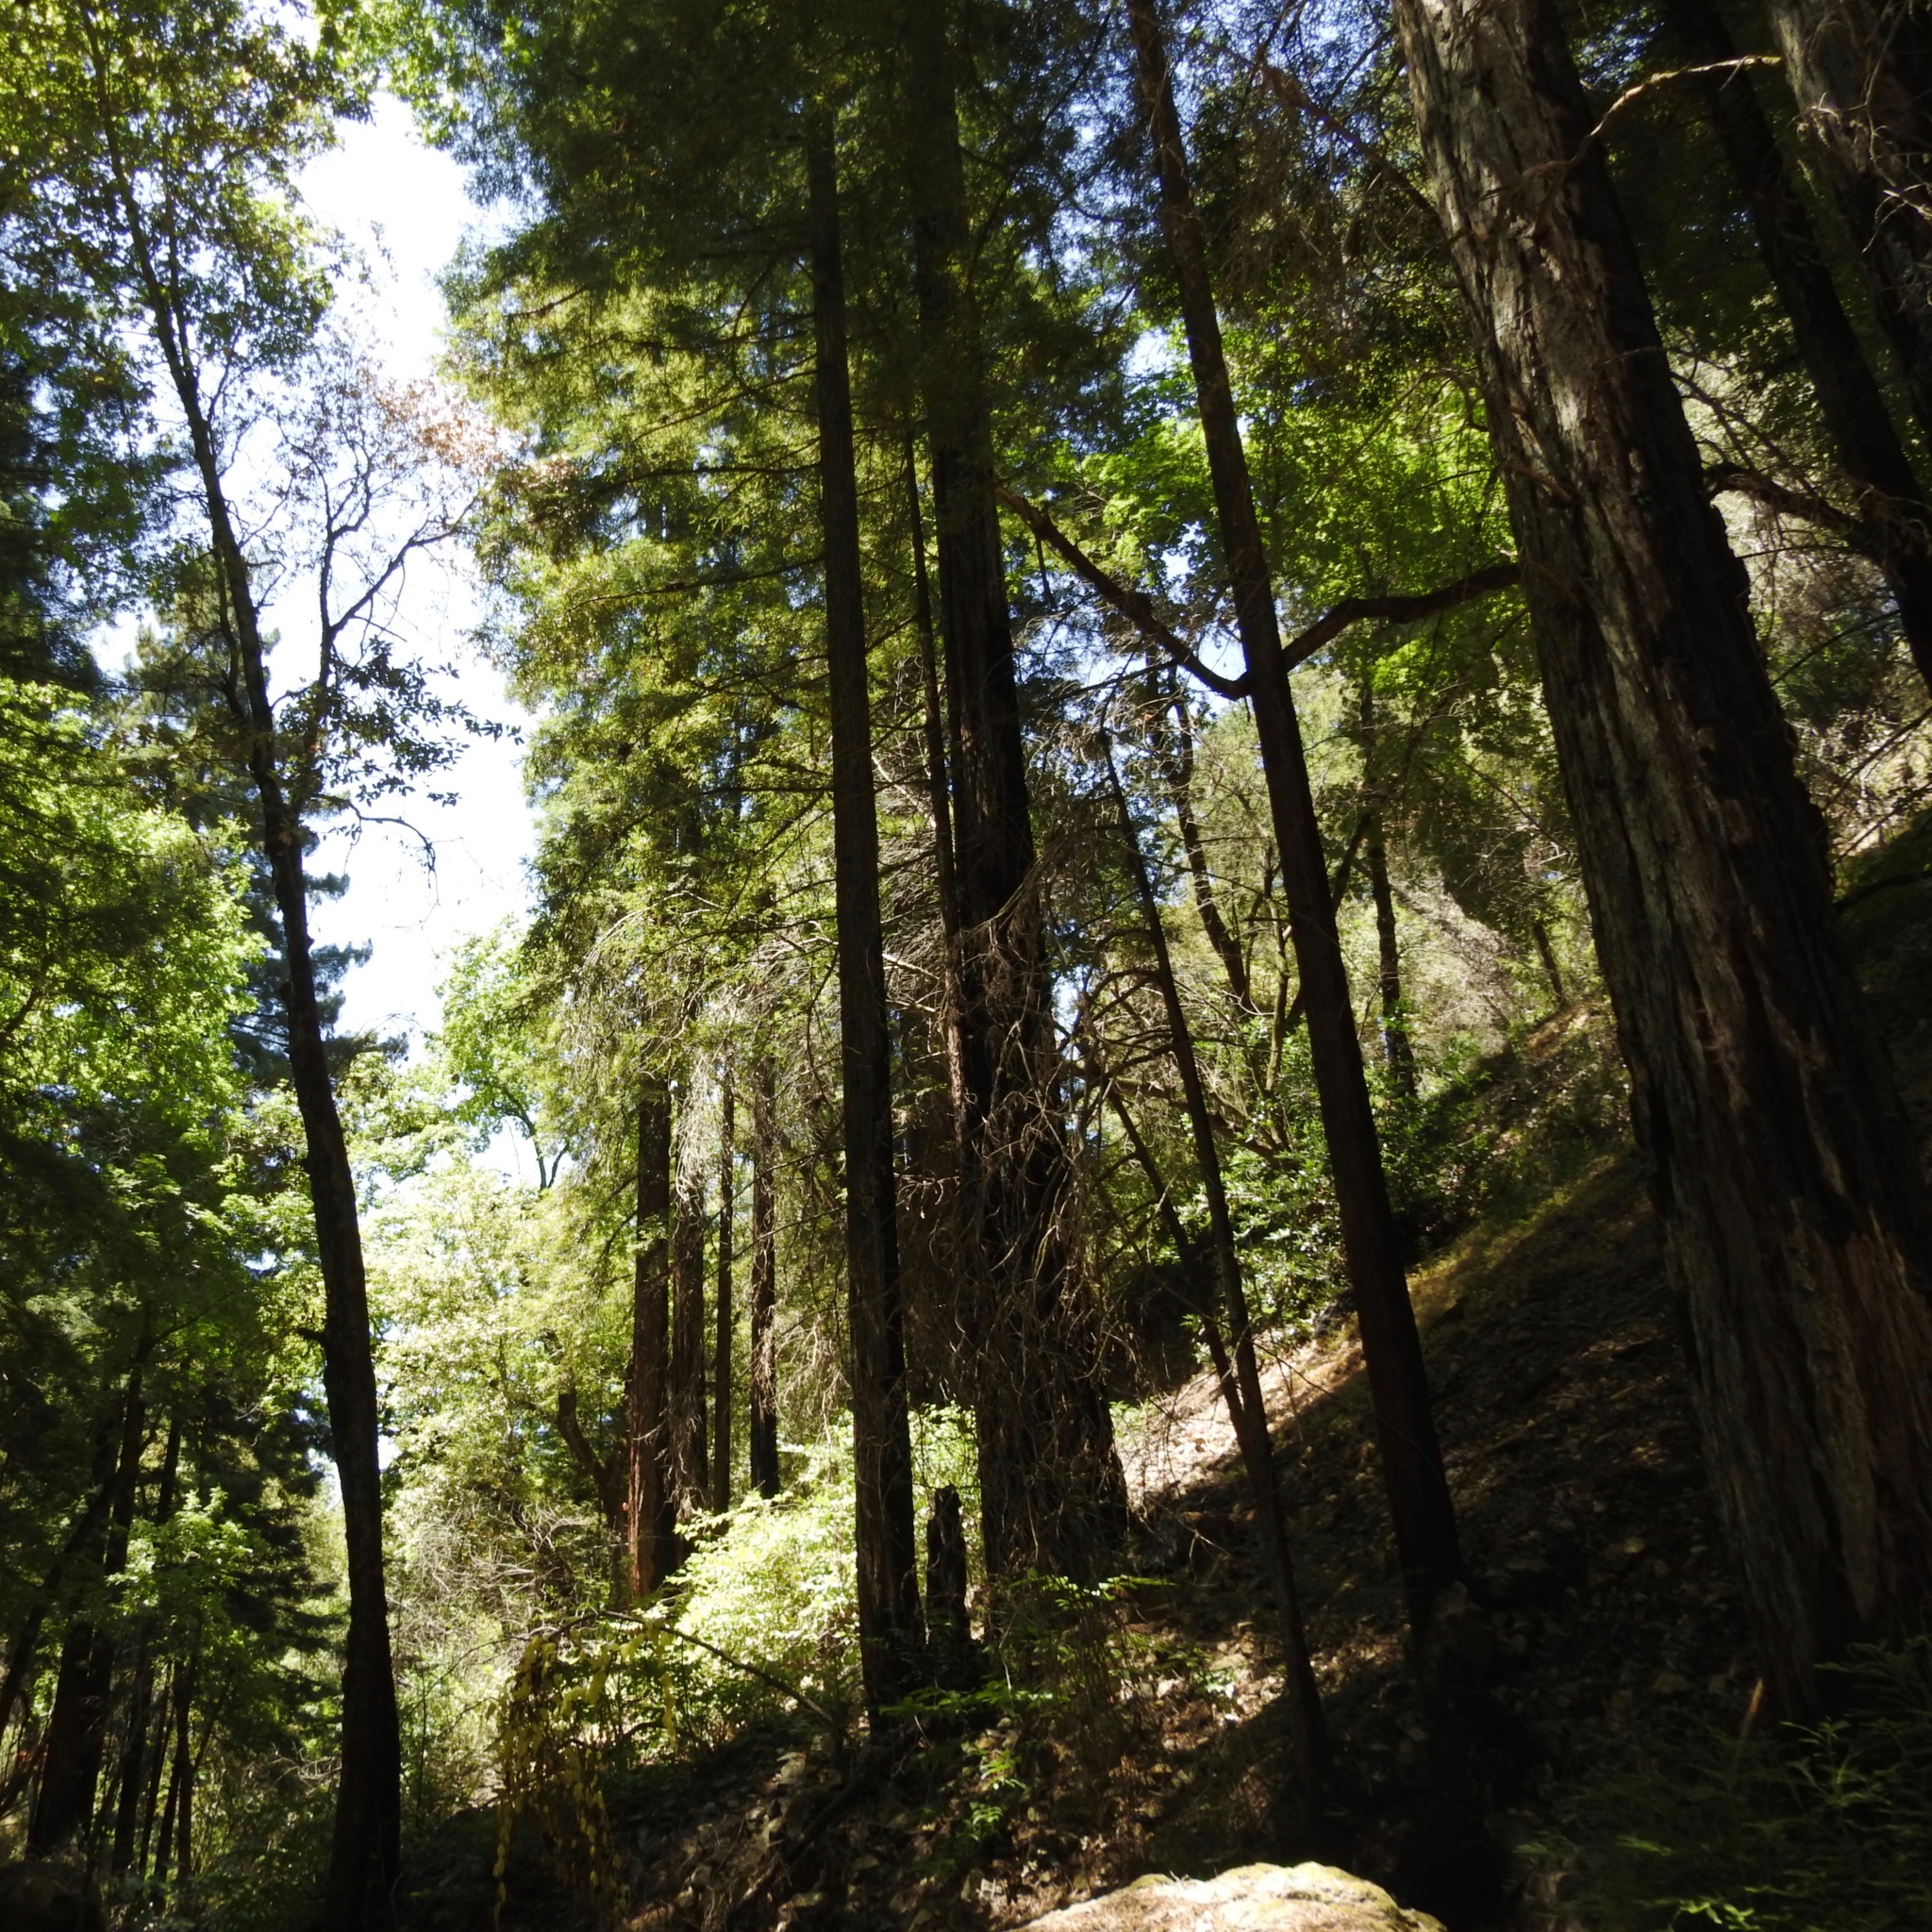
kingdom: Plantae
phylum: Tracheophyta
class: Pinopsida
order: Pinales
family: Cupressaceae
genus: Sequoia
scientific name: Sequoia sempervirens
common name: Coast redwood
